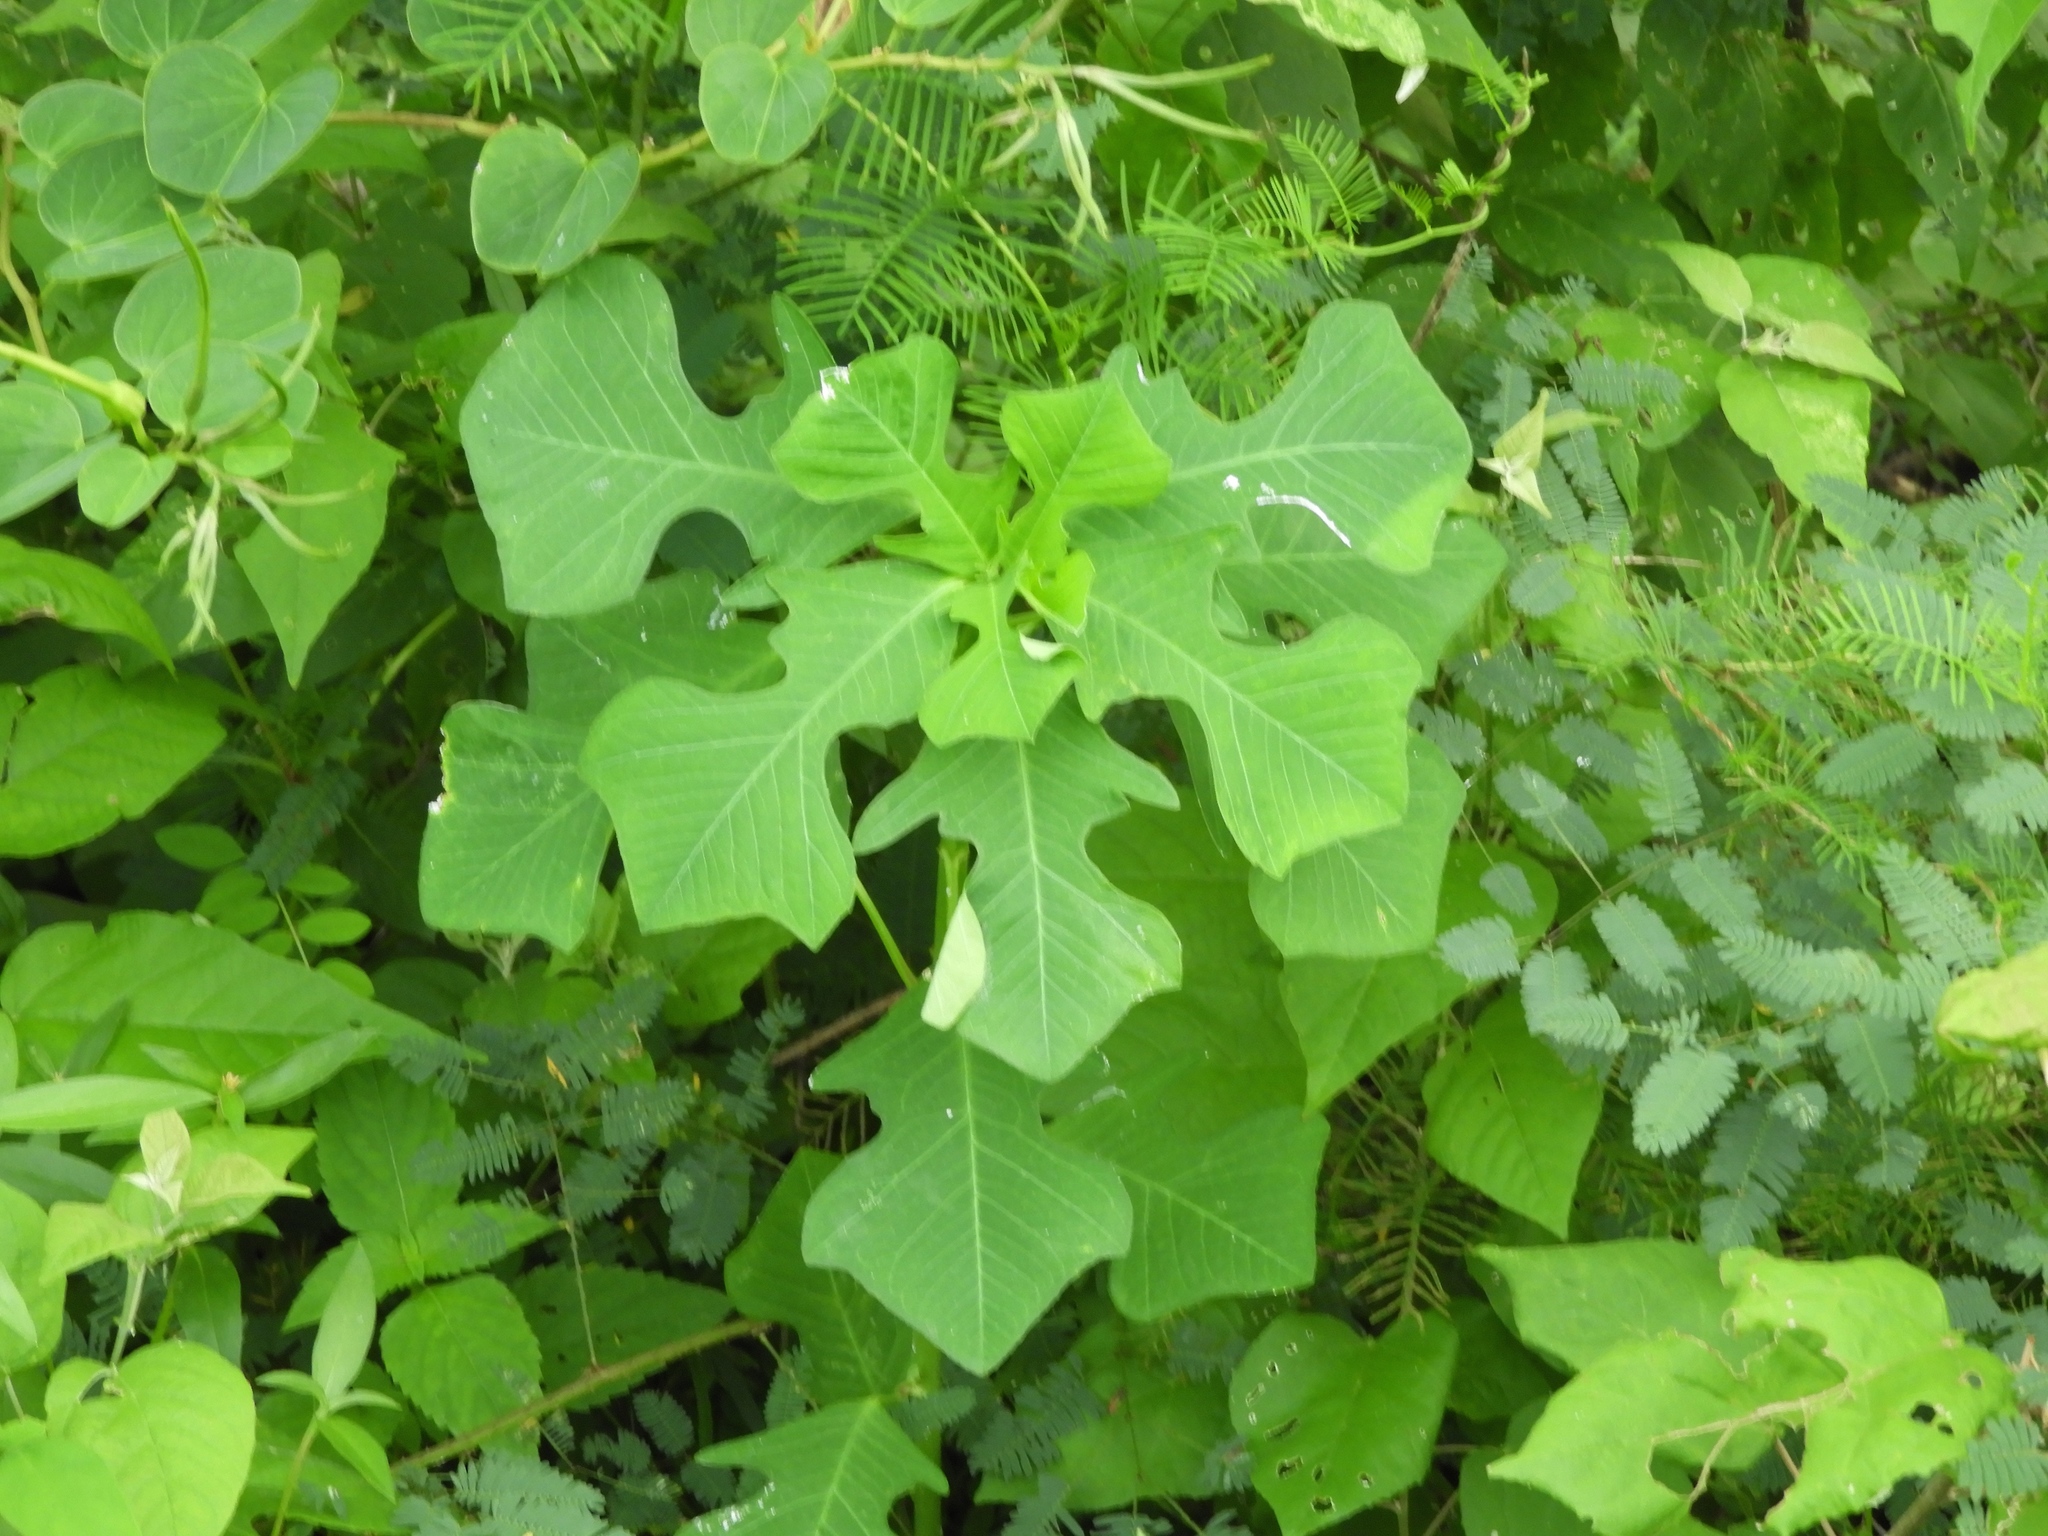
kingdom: Plantae
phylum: Tracheophyta
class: Magnoliopsida
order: Malpighiales
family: Euphorbiaceae
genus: Euphorbia
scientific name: Euphorbia heterophylla
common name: Mexican fireplant
